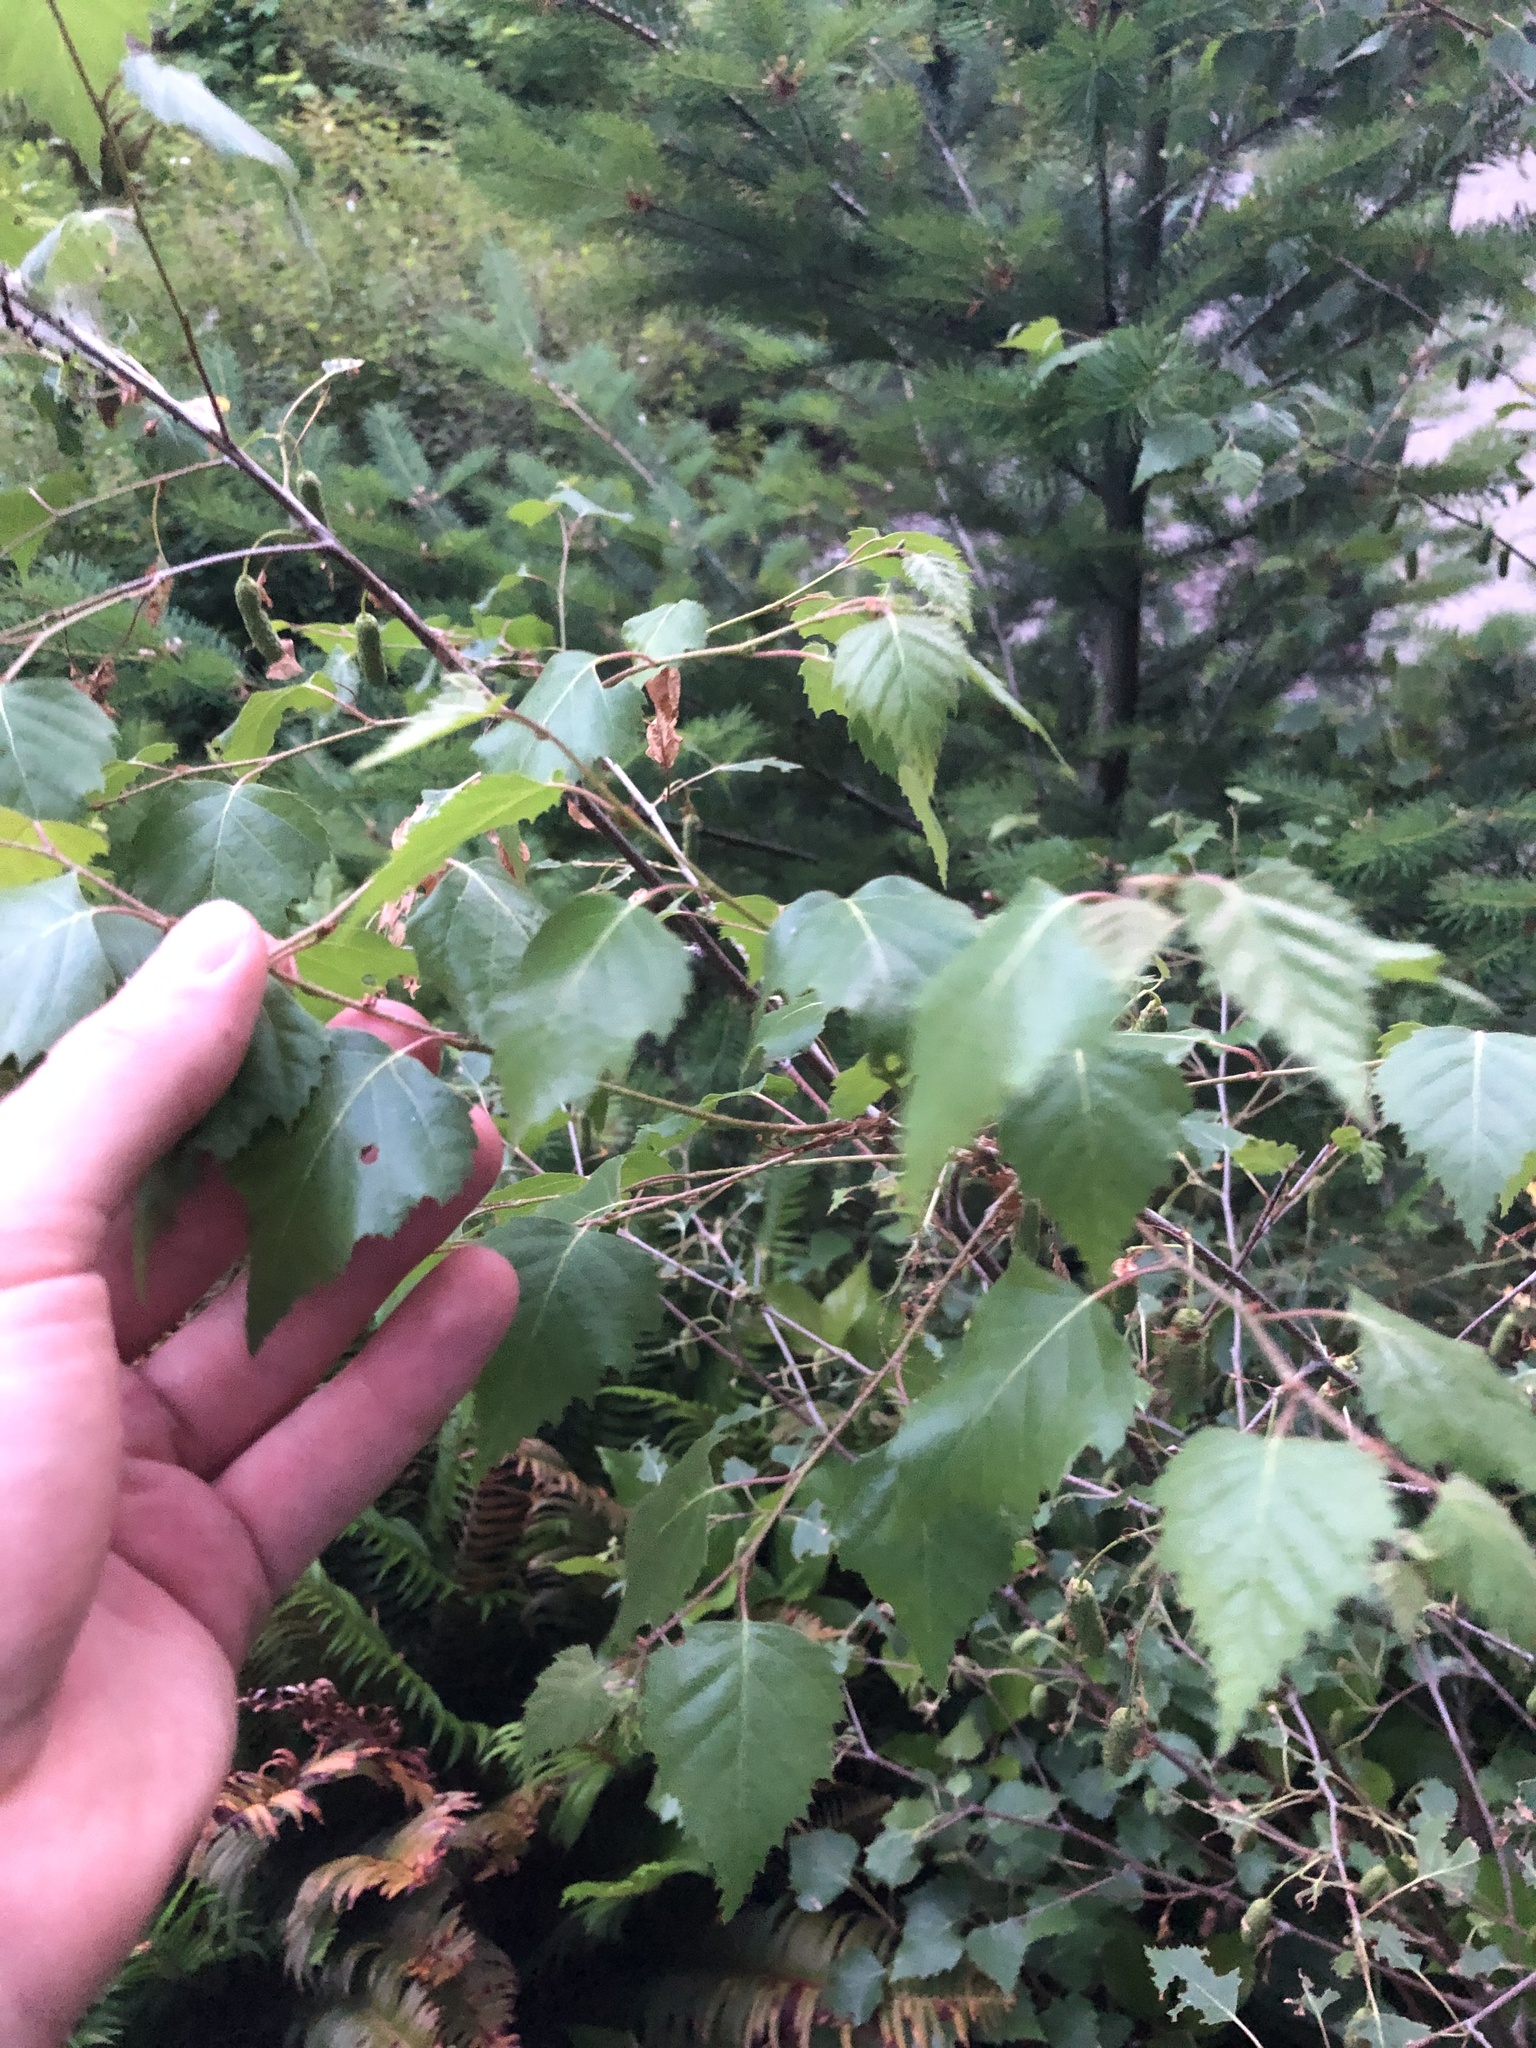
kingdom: Plantae
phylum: Tracheophyta
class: Magnoliopsida
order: Fagales
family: Betulaceae
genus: Betula
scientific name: Betula pendula
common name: Silver birch
